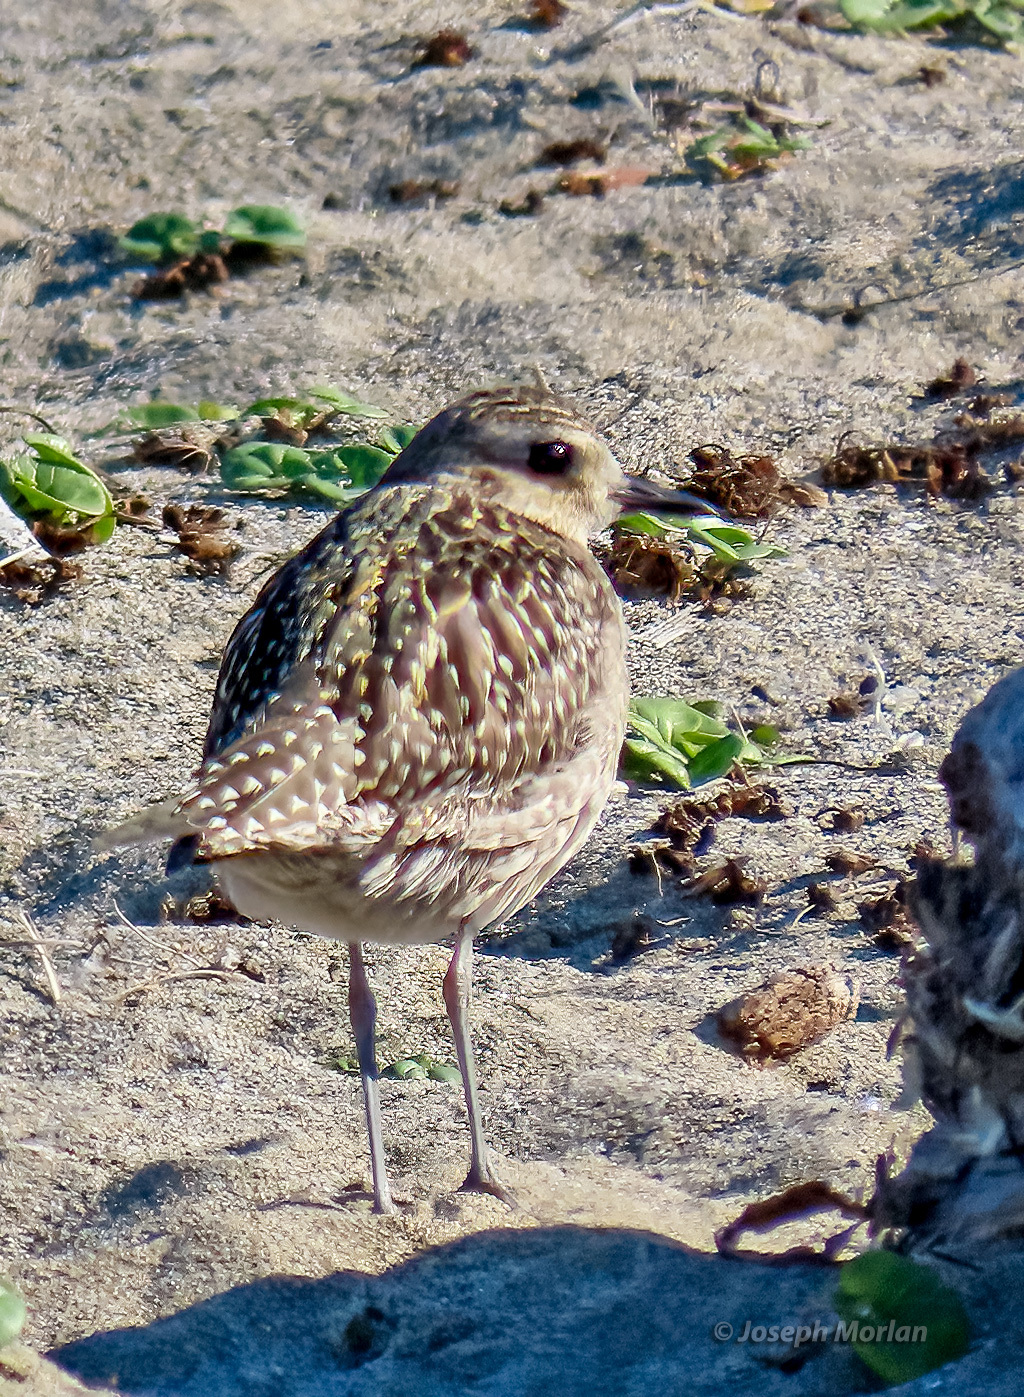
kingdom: Animalia
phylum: Chordata
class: Aves
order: Charadriiformes
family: Charadriidae
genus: Pluvialis
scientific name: Pluvialis fulva
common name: Pacific golden plover
